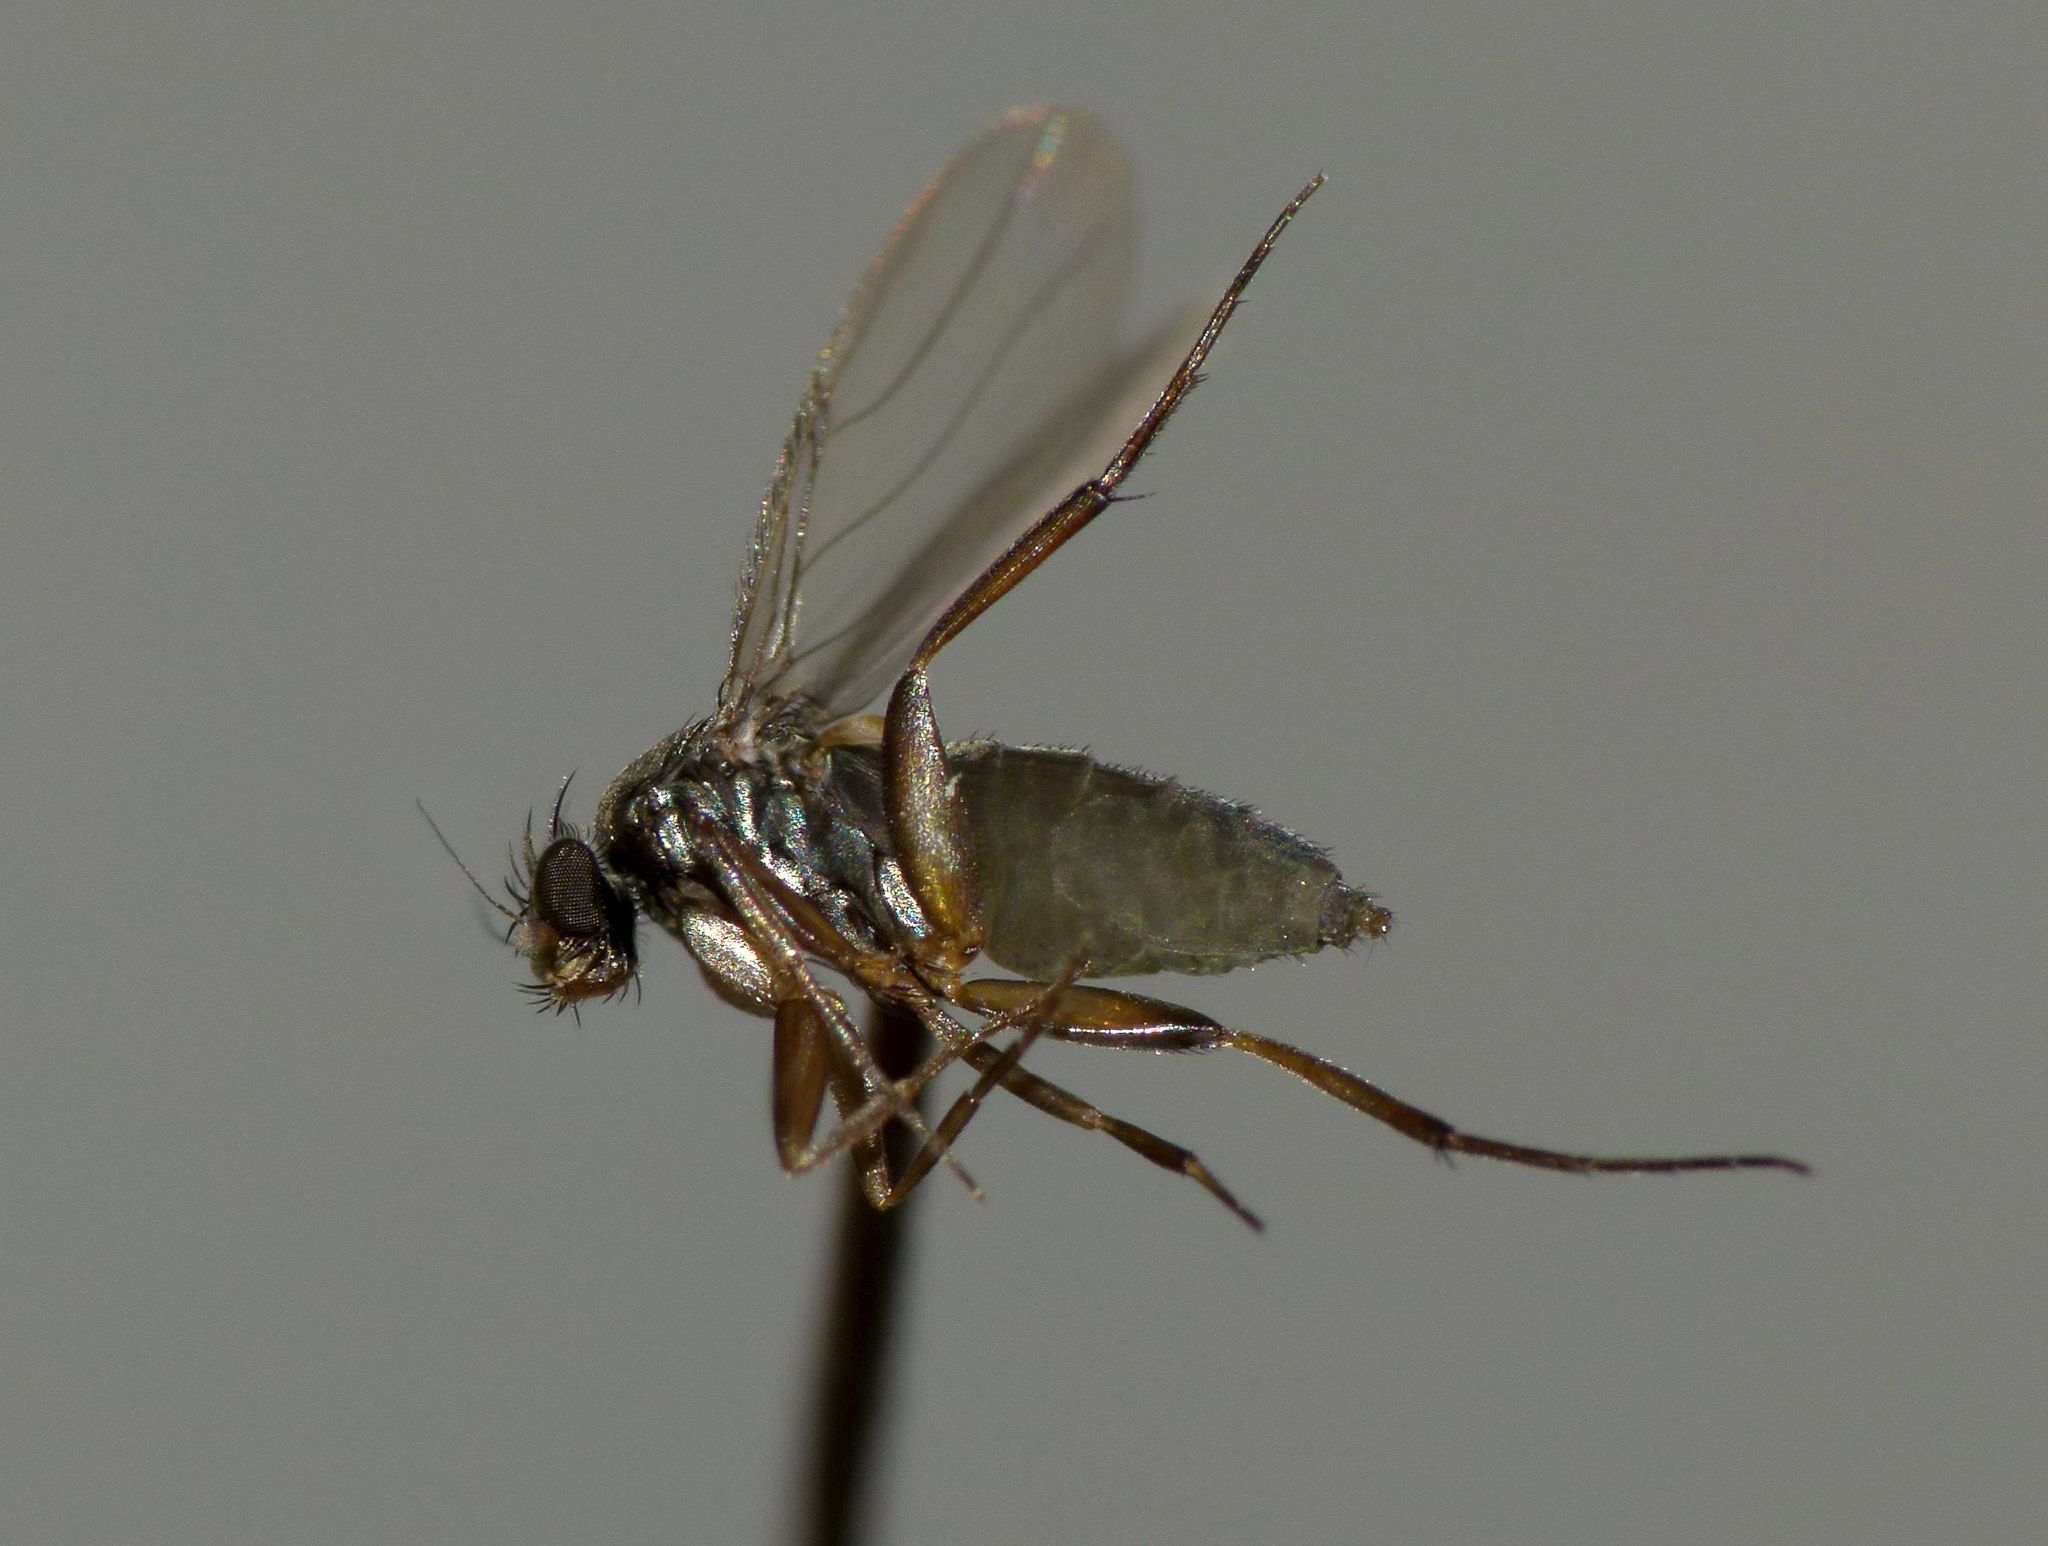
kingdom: Animalia
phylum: Arthropoda
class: Insecta
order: Diptera
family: Phoridae
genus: Megaselia
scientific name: Megaselia rufipes
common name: Hump-backed fly
